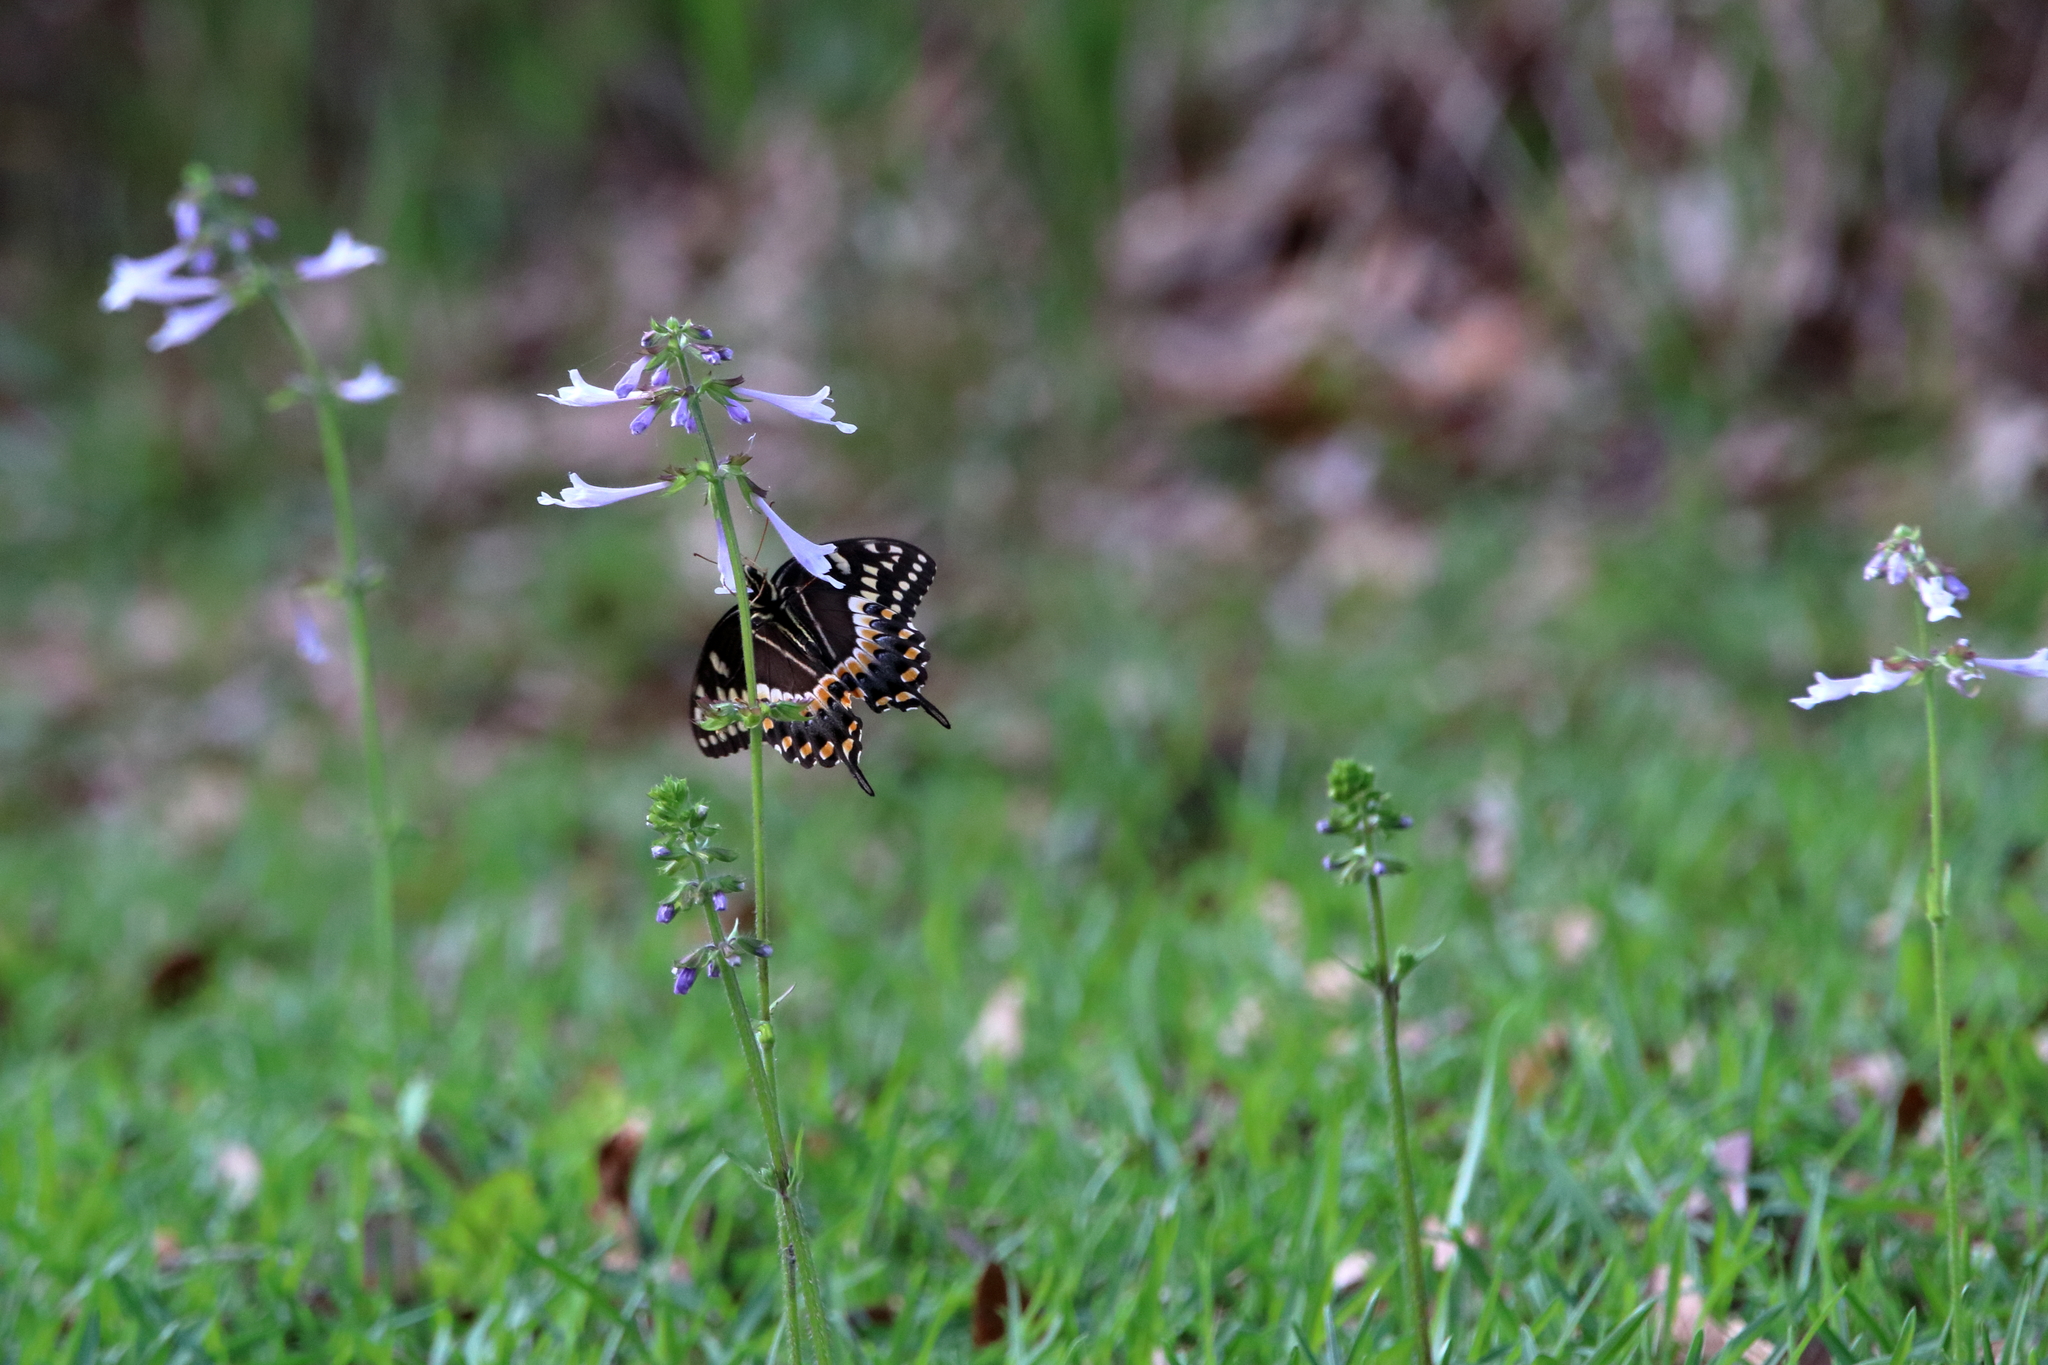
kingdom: Animalia
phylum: Arthropoda
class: Insecta
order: Lepidoptera
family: Papilionidae
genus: Papilio
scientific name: Papilio palamedes
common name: Palamedes swallowtail
